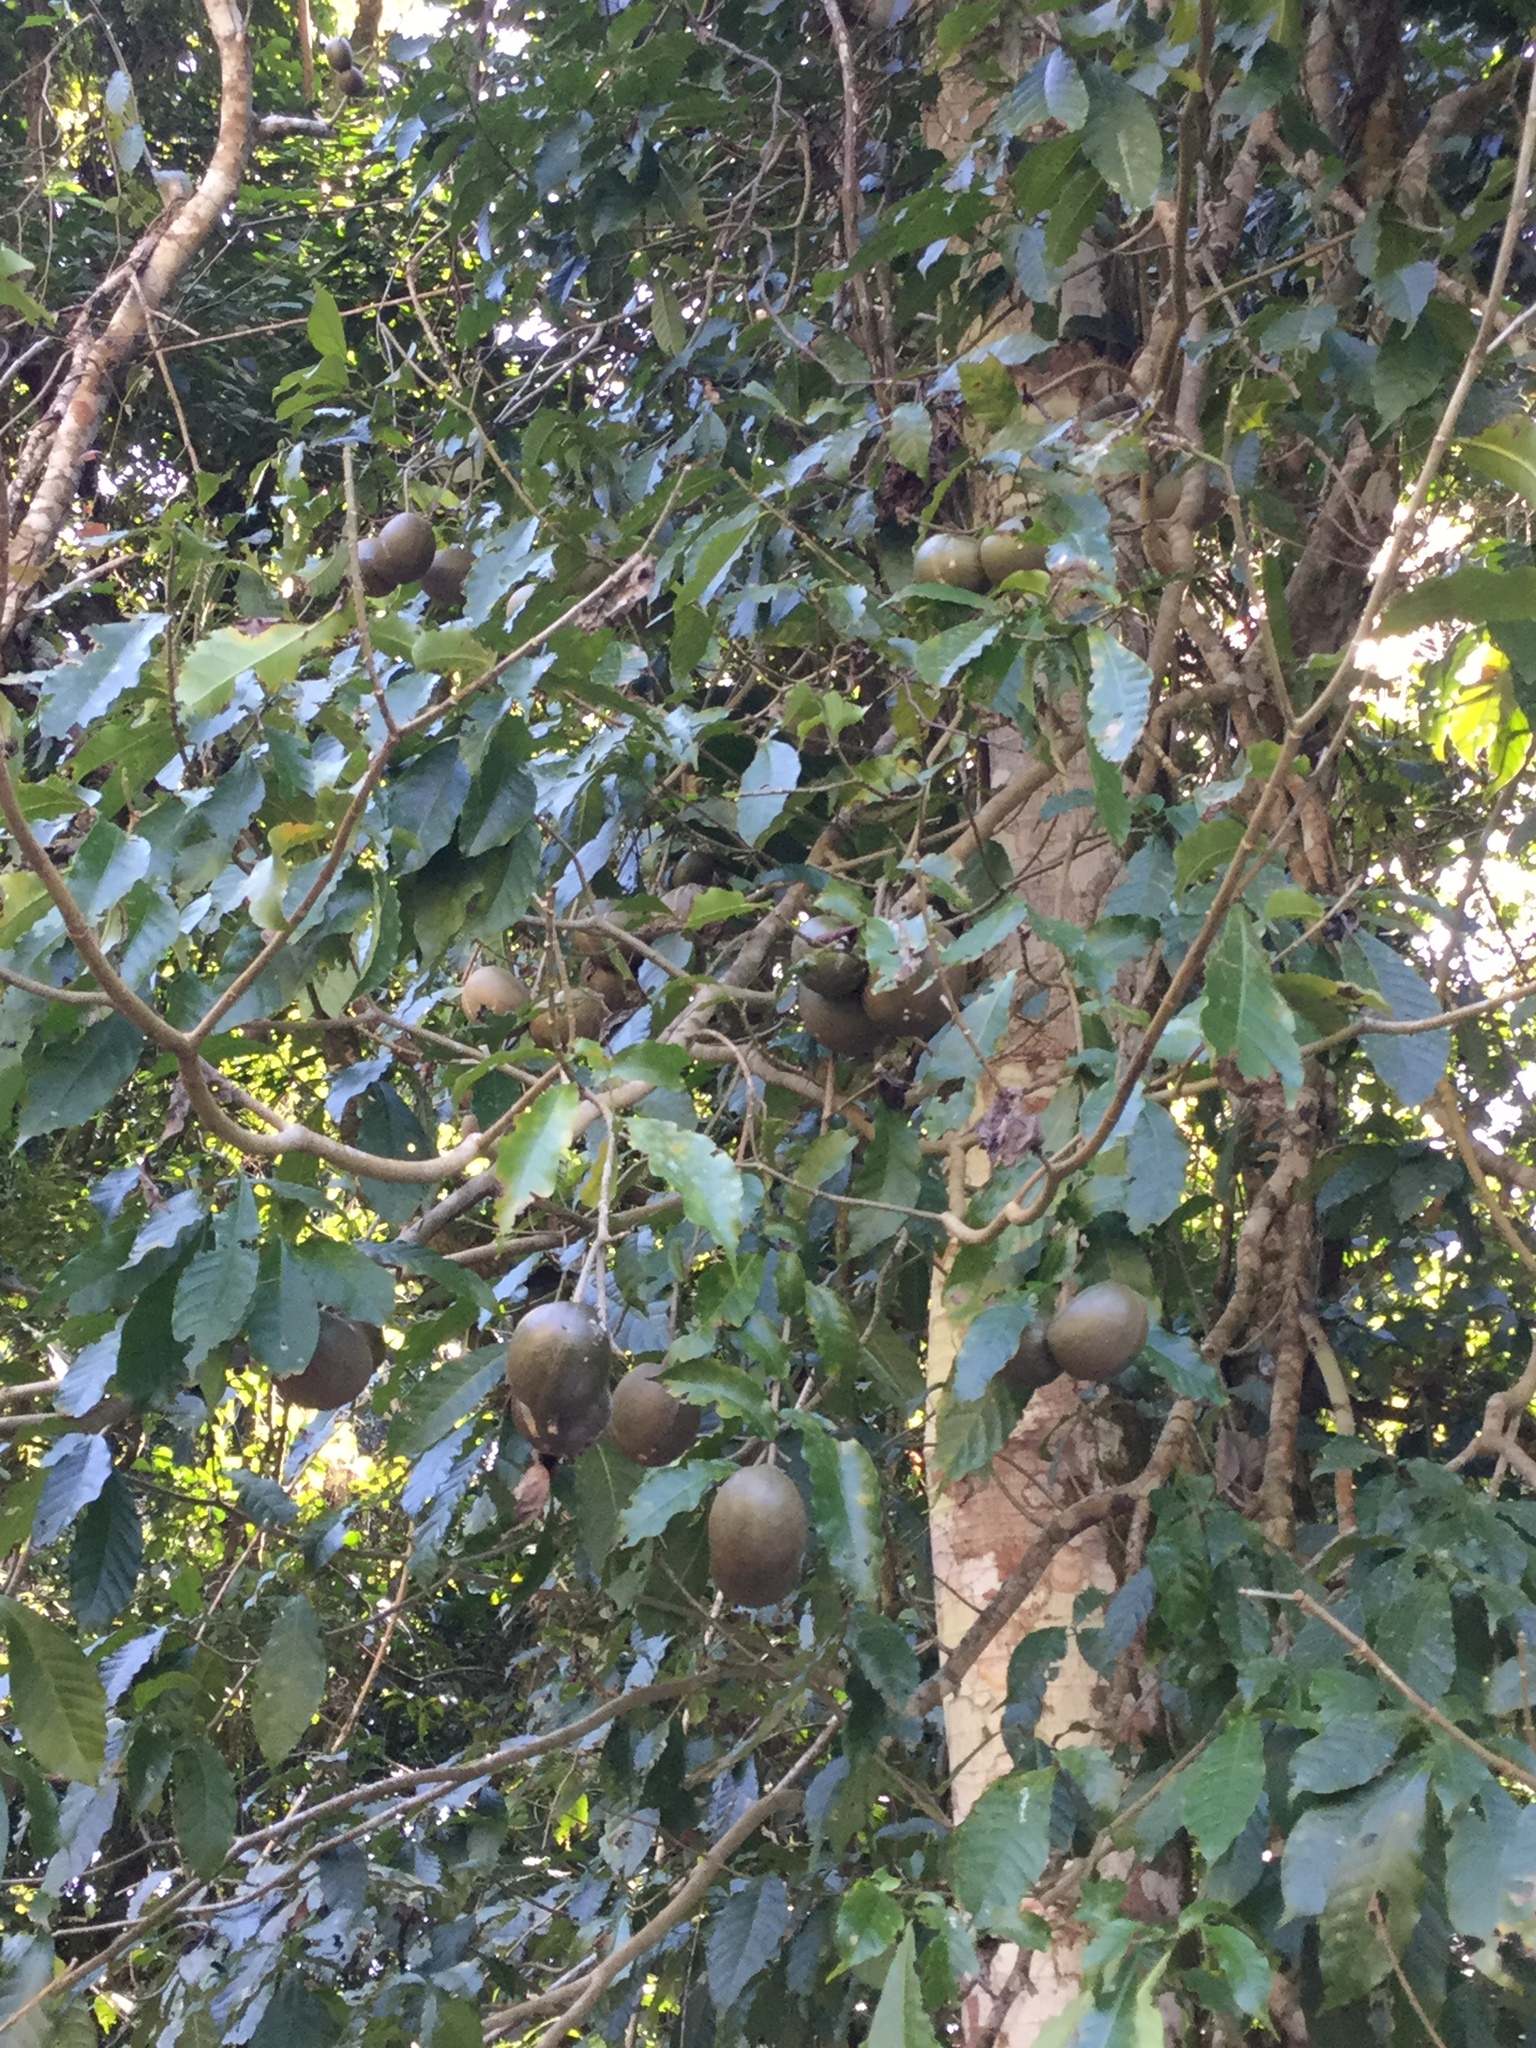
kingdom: Plantae
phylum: Tracheophyta
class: Magnoliopsida
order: Gentianales
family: Apocynaceae
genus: Tabernaemontana
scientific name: Tabernaemontana donnell-smithii
